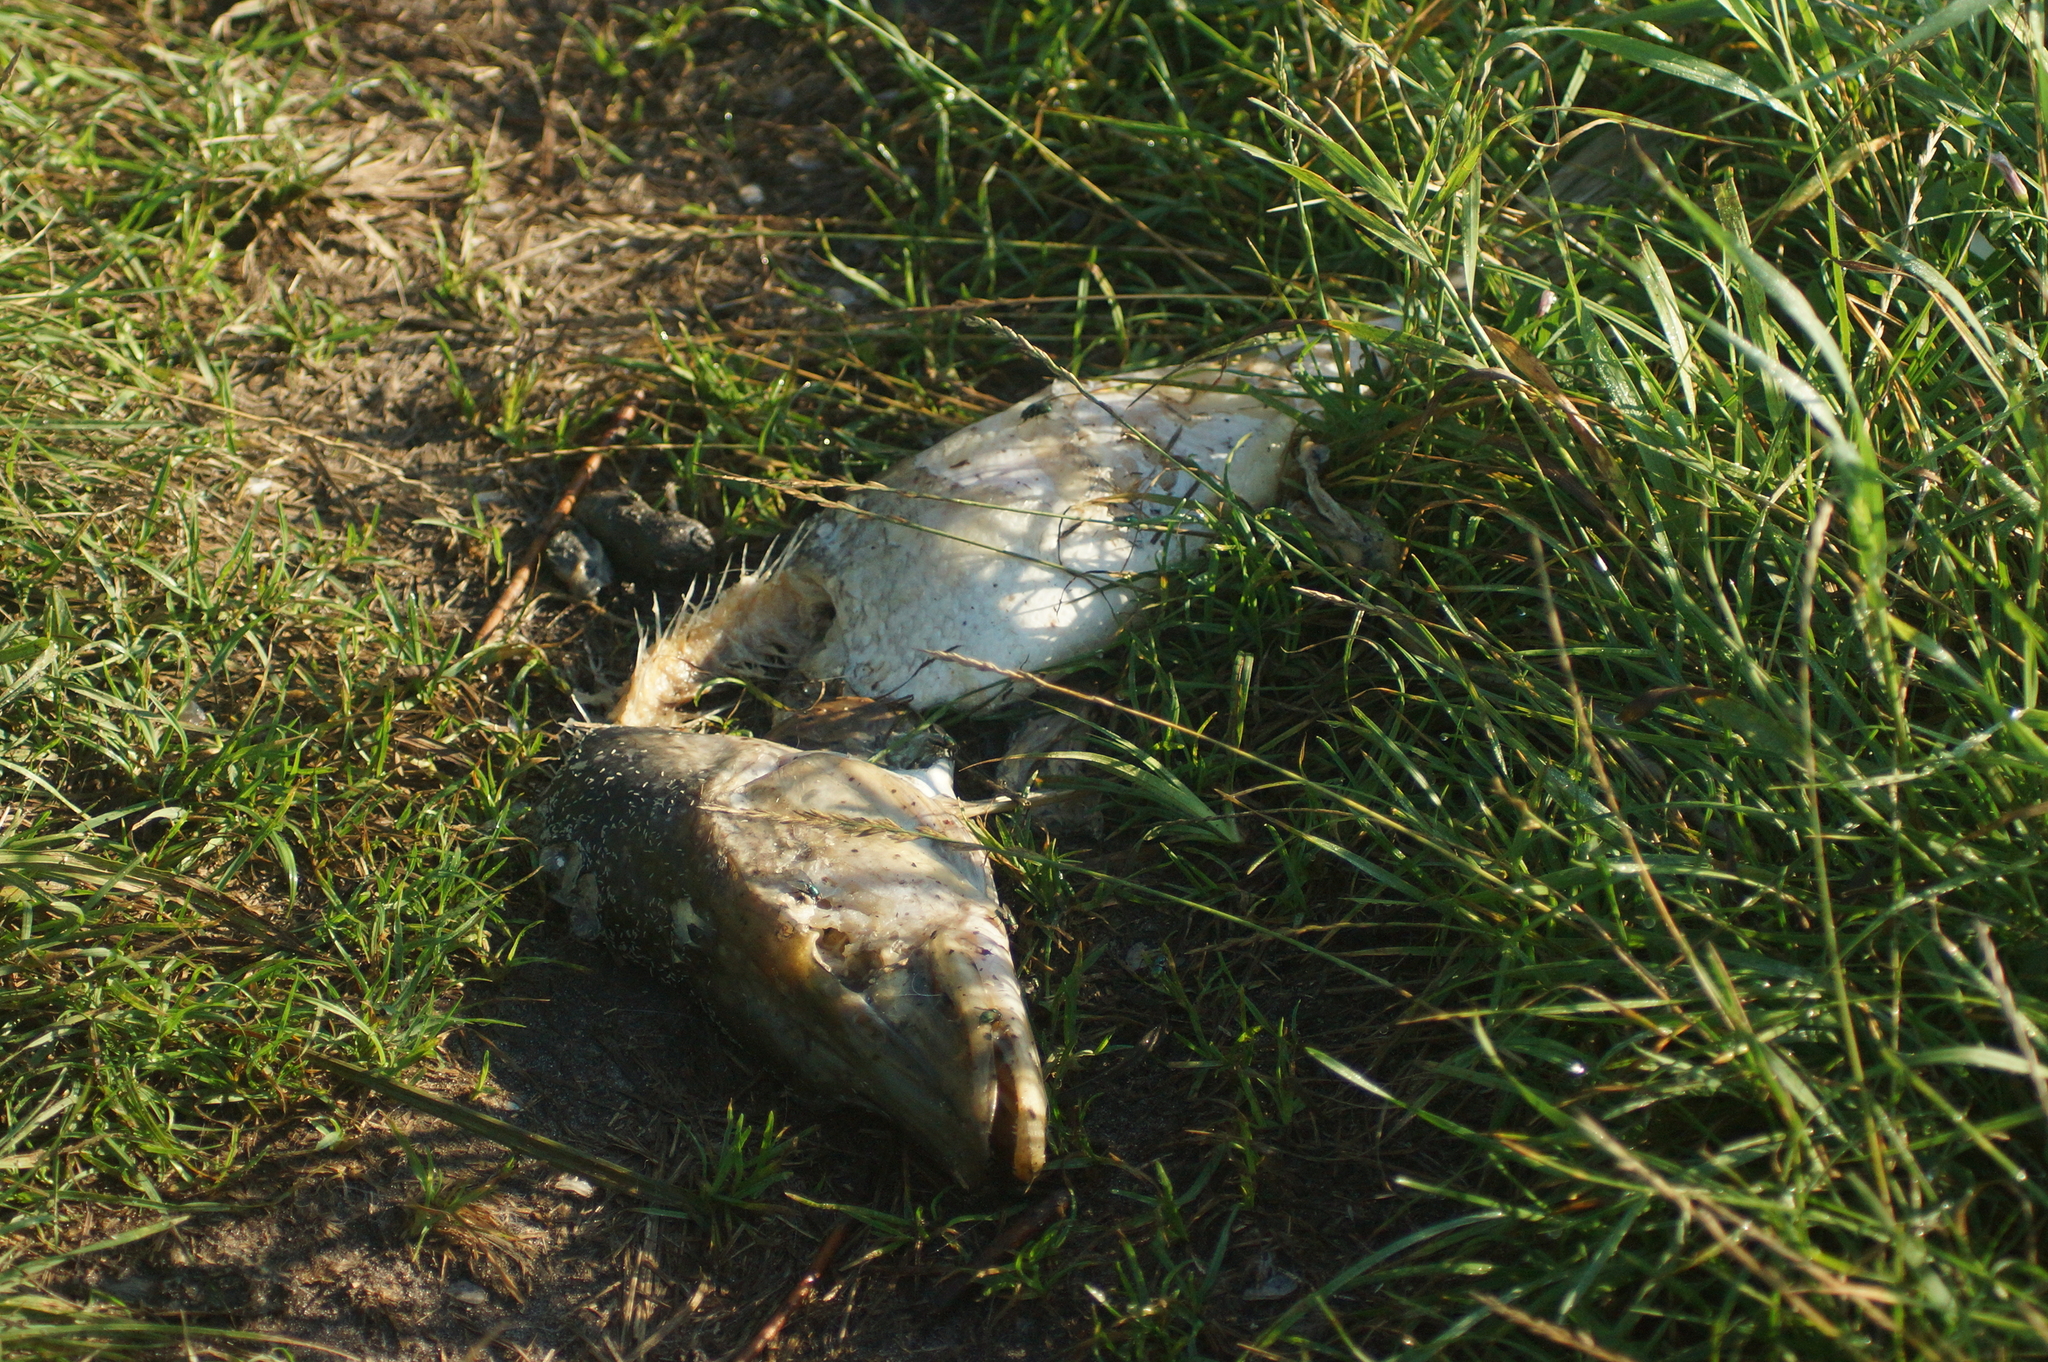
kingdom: Animalia
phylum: Chordata
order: Esociformes
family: Esocidae
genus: Esox
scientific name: Esox lucius
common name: Northern pike
